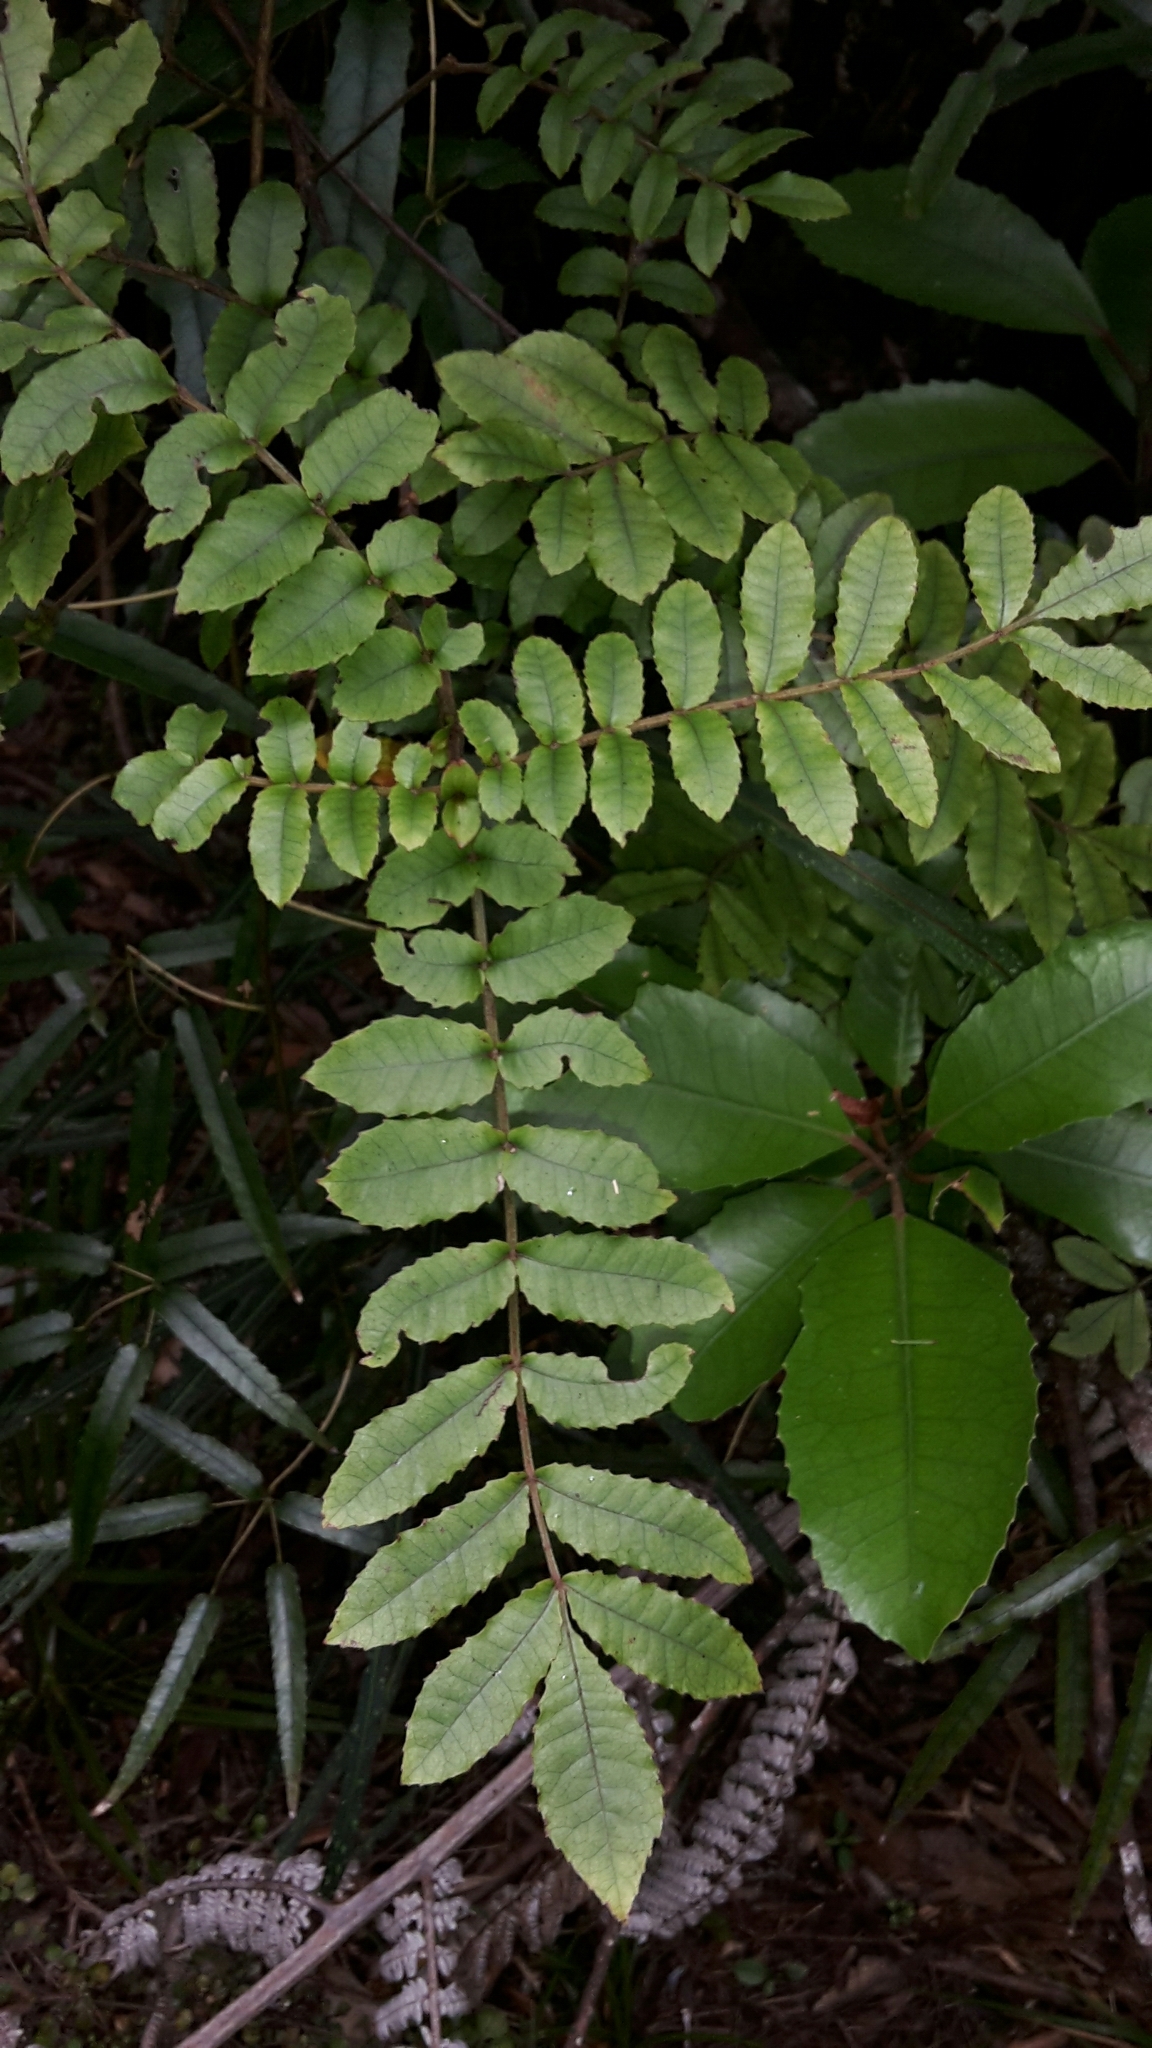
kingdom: Plantae
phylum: Tracheophyta
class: Magnoliopsida
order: Oxalidales
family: Cunoniaceae
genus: Ackama
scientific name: Ackama rosifolia
